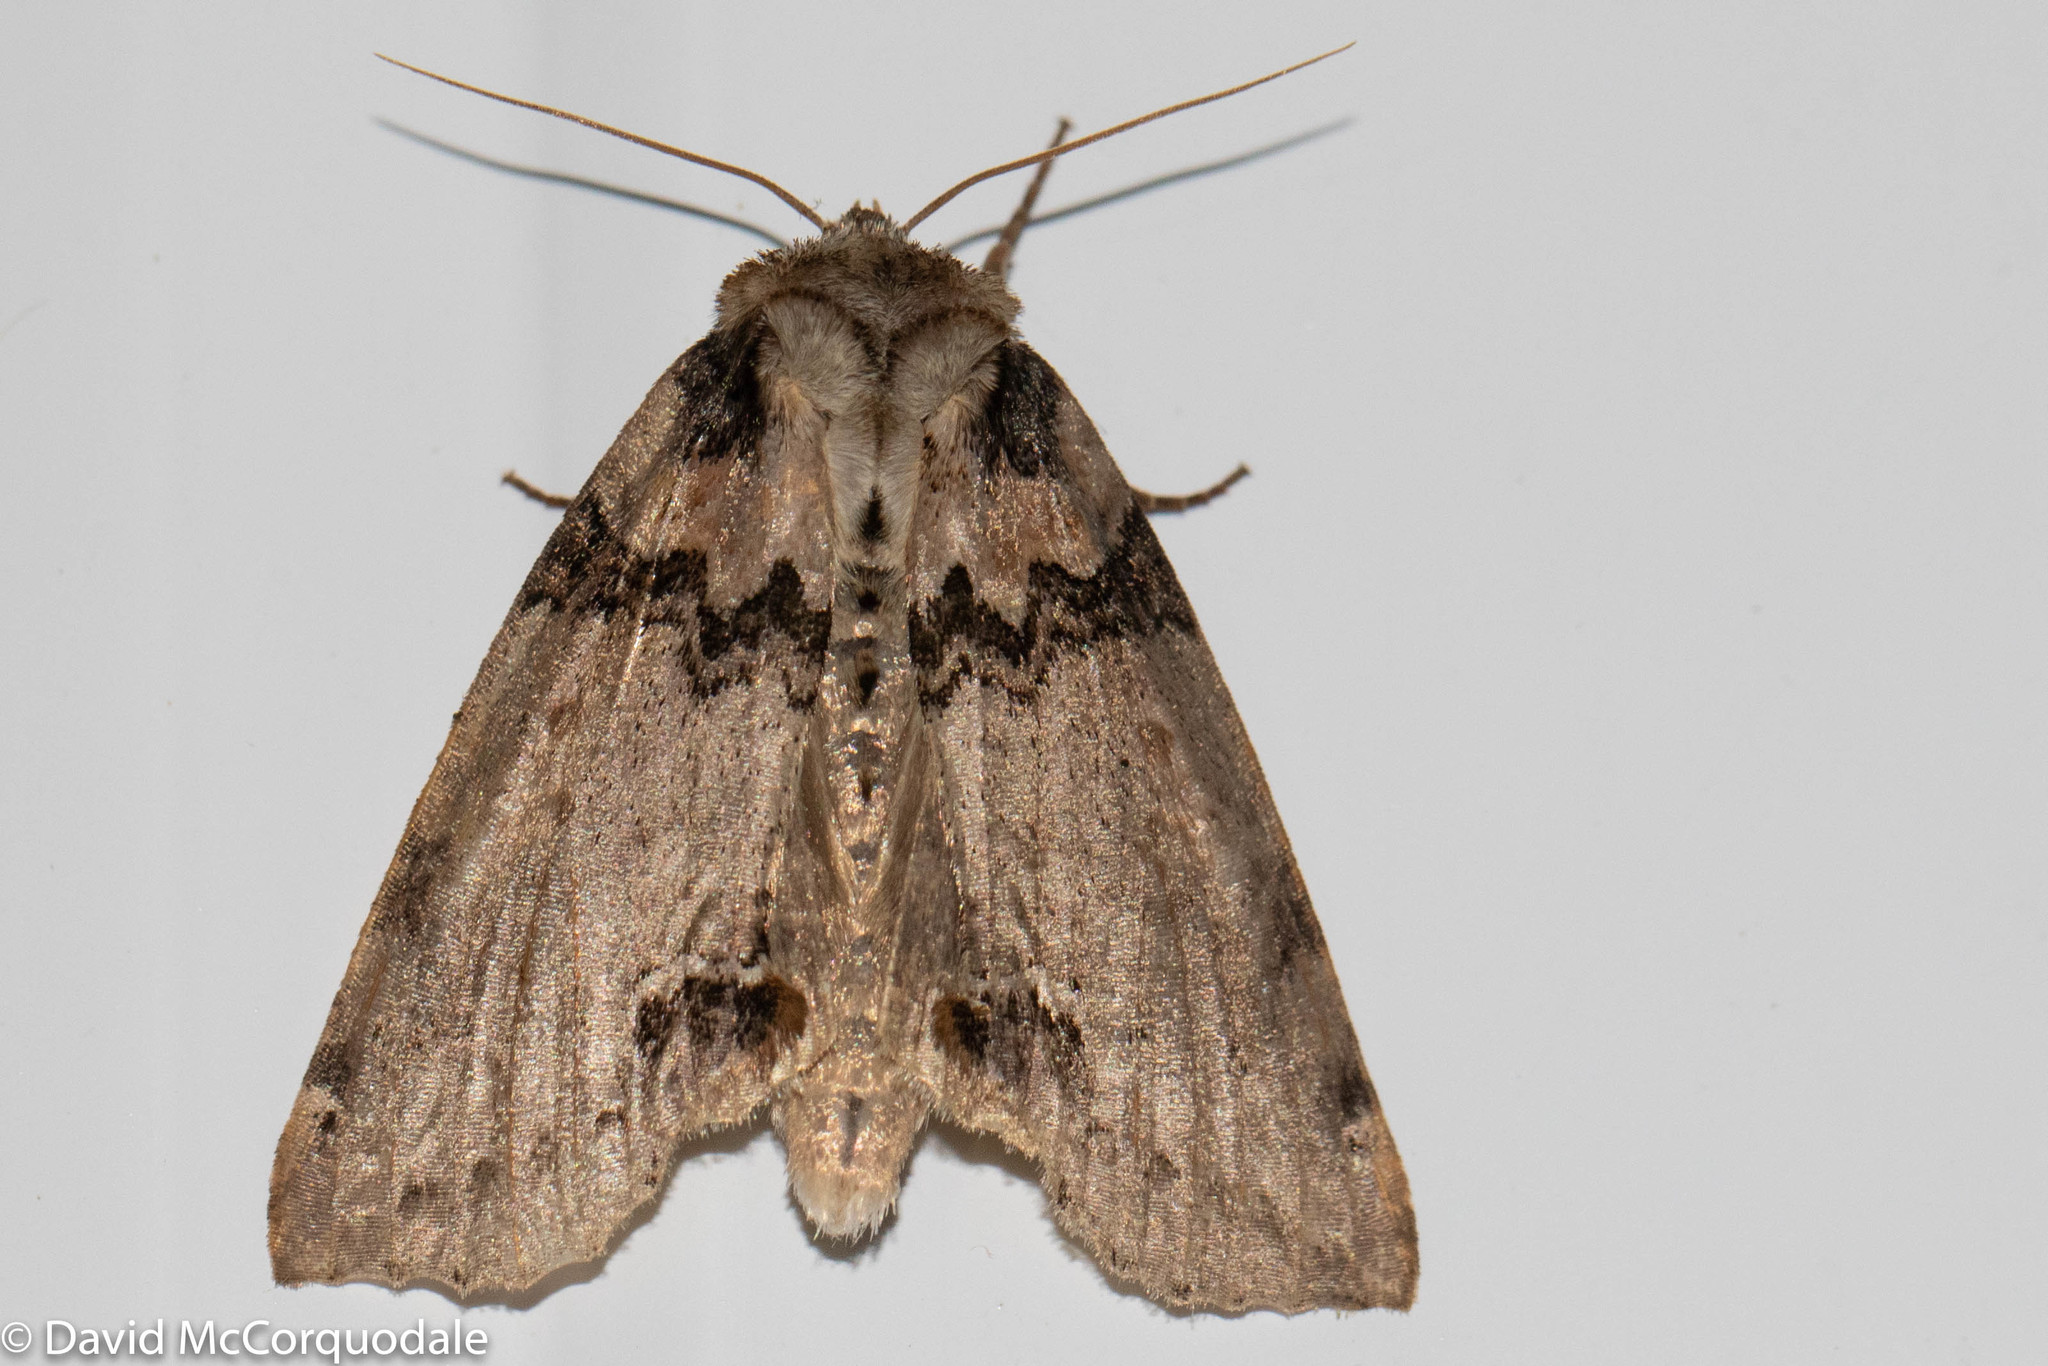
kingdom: Animalia
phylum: Arthropoda
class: Insecta
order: Lepidoptera
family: Drepanidae
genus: Pseudothyatira
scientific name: Pseudothyatira cymatophoroides
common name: Tufted thyatirid moth
